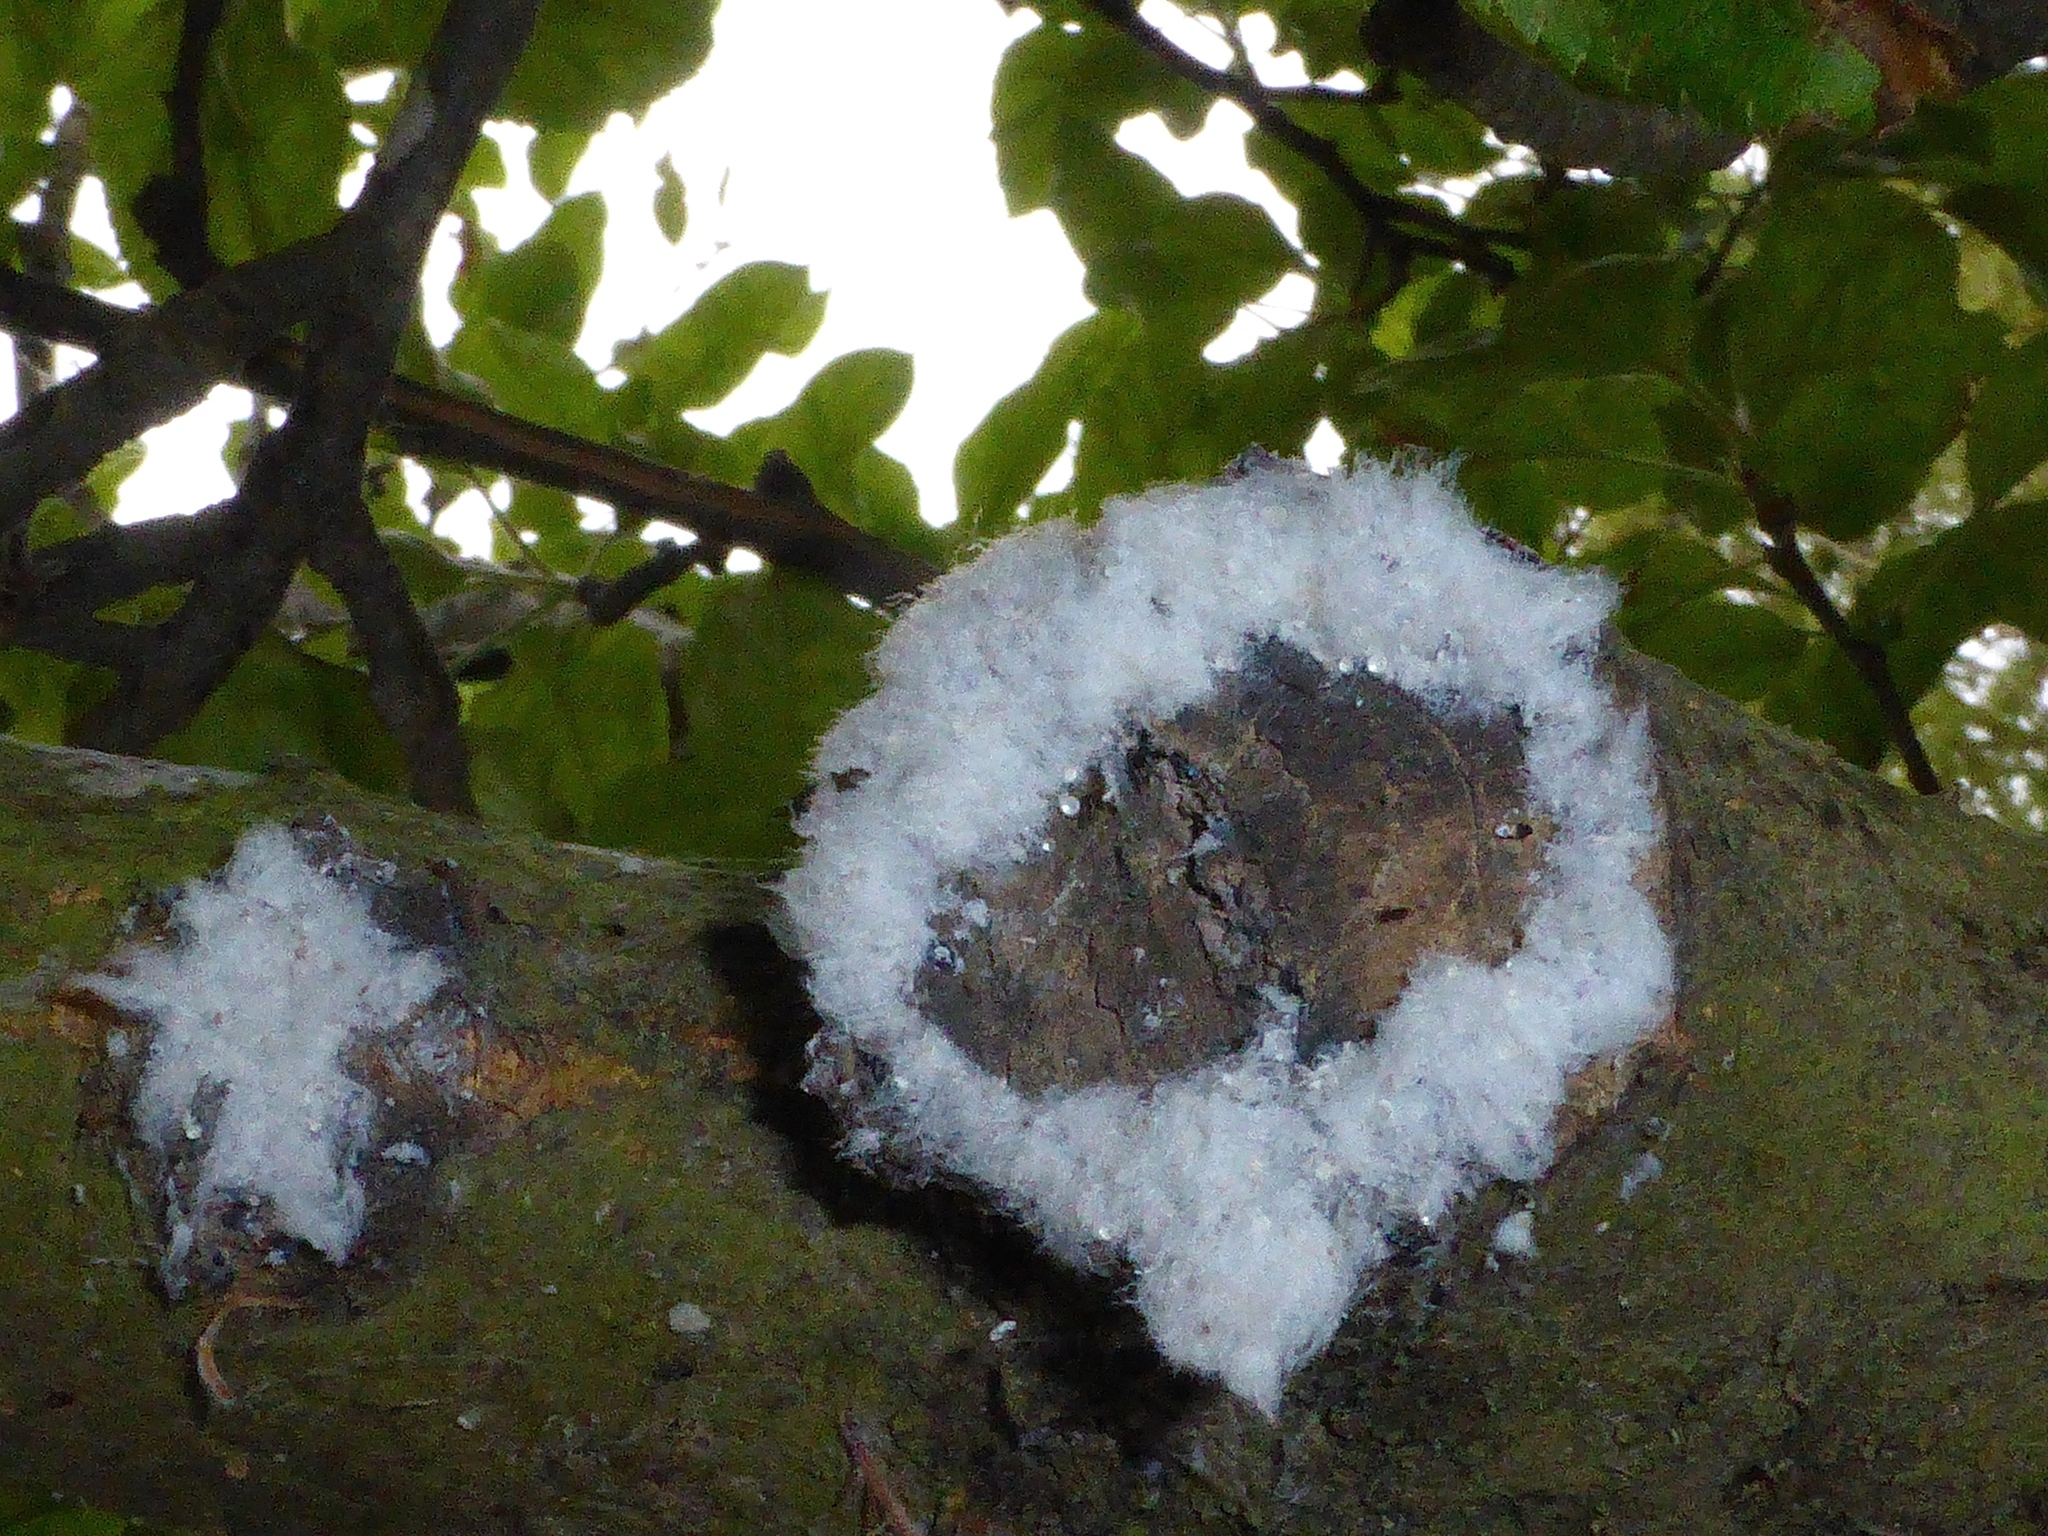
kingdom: Animalia
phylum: Arthropoda
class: Insecta
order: Hemiptera
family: Aphididae
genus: Eriosoma
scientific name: Eriosoma lanigerum
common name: Woolly apple aphid
